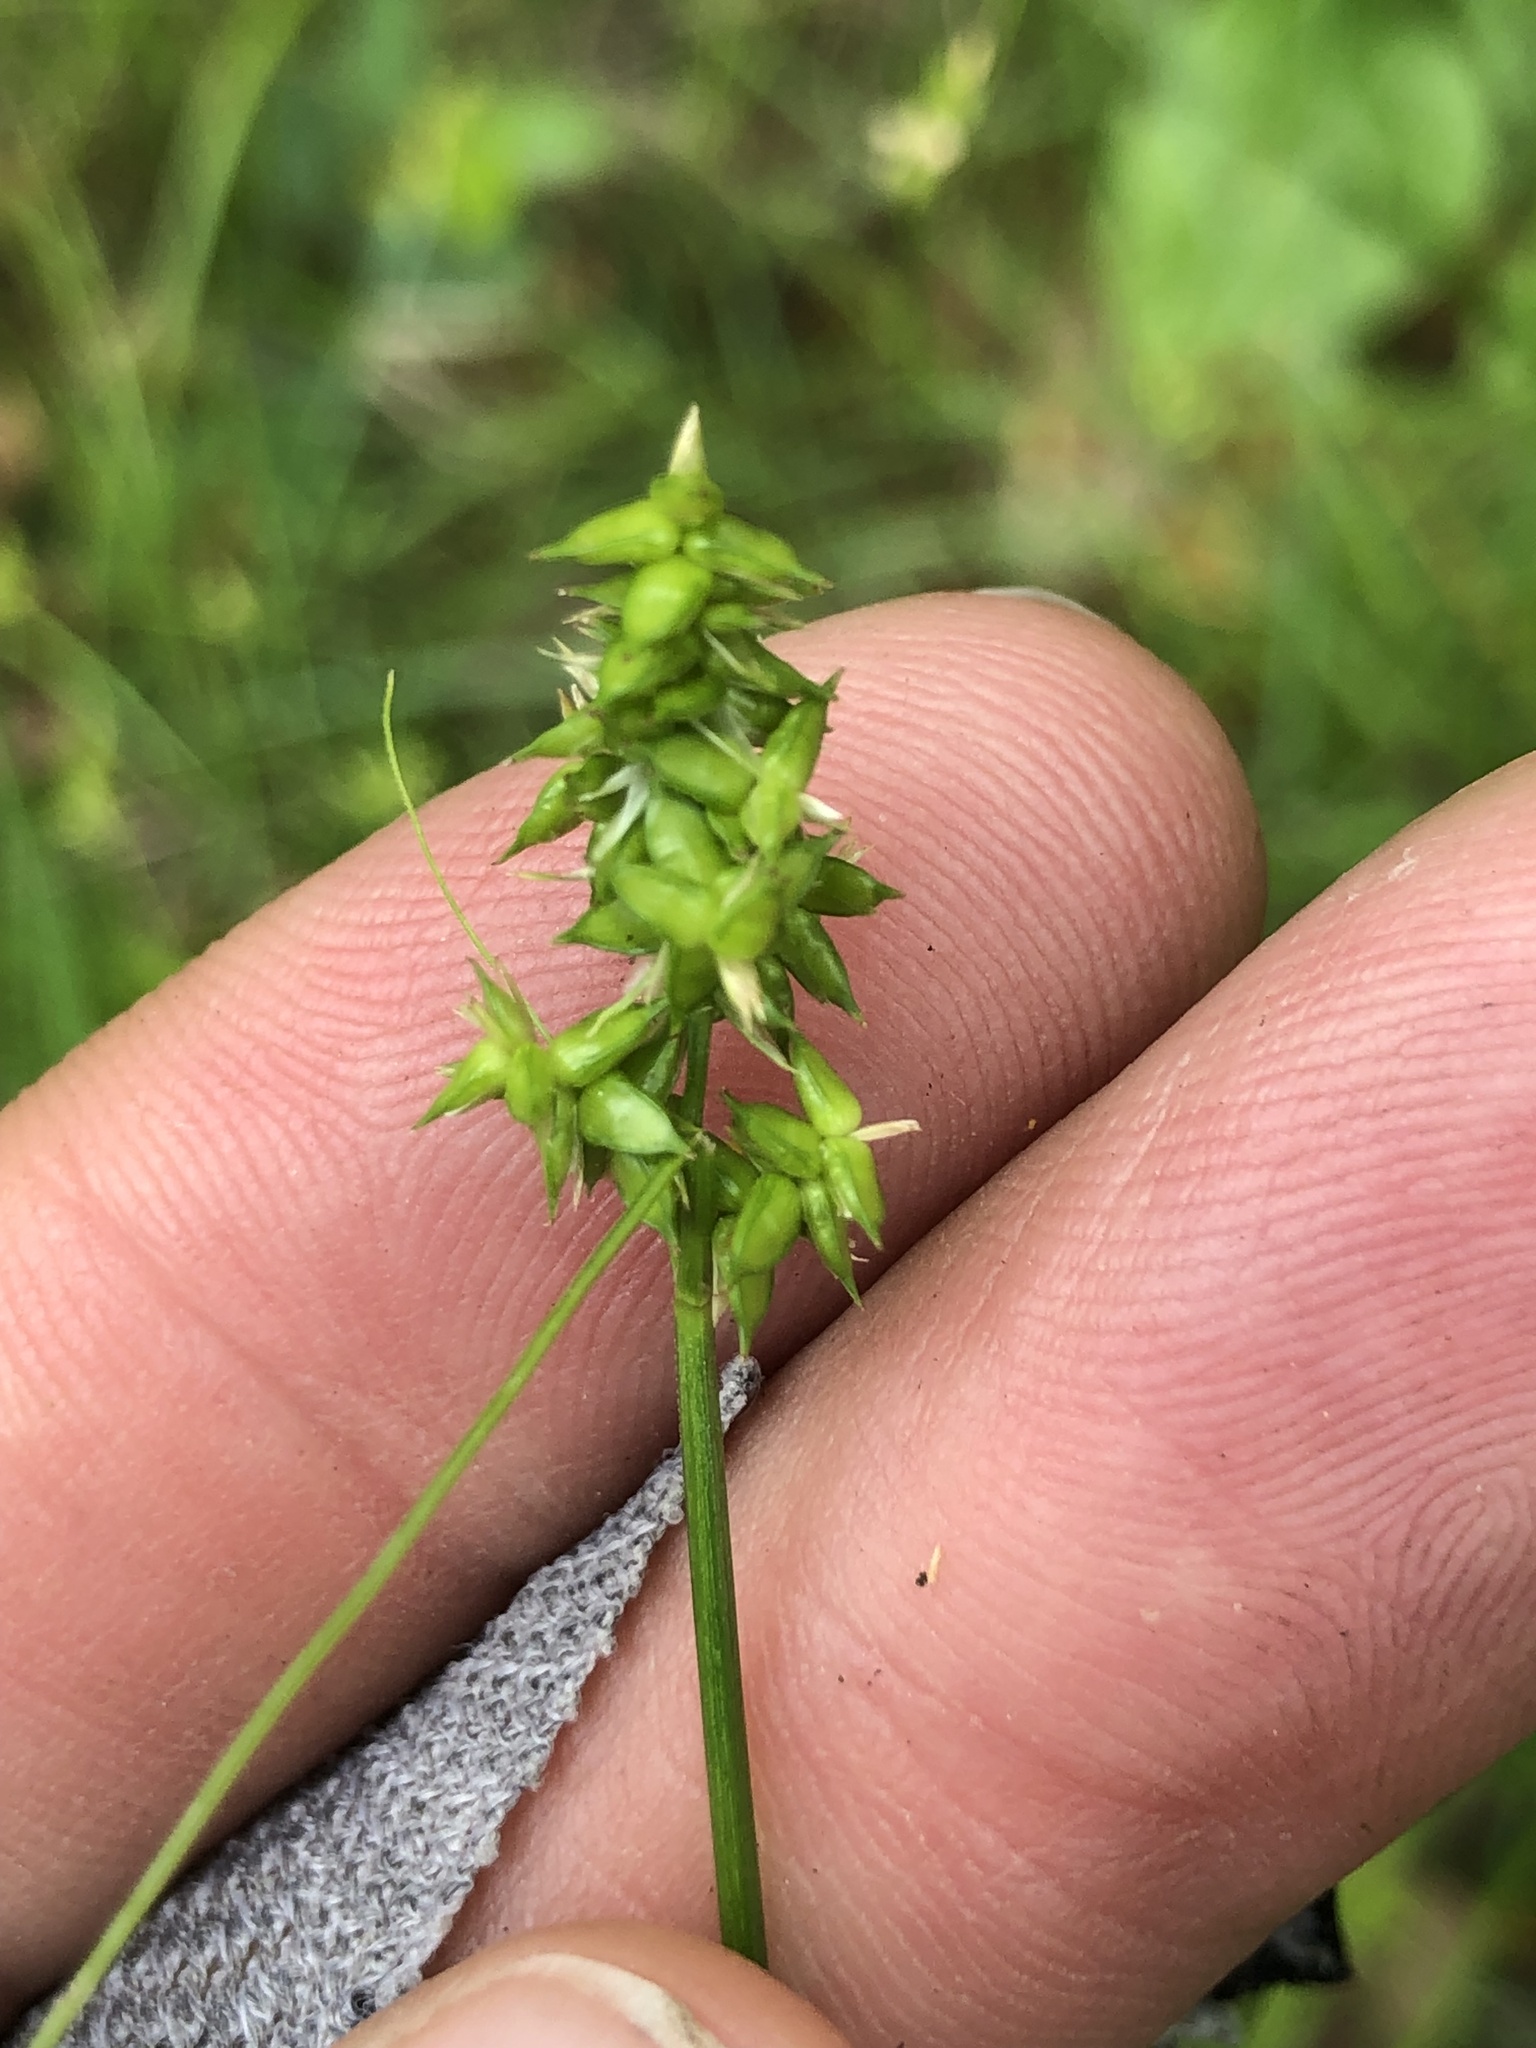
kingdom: Plantae
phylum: Tracheophyta
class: Liliopsida
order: Poales
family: Cyperaceae
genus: Carex
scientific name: Carex retroflexa
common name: Reflexed sedge
